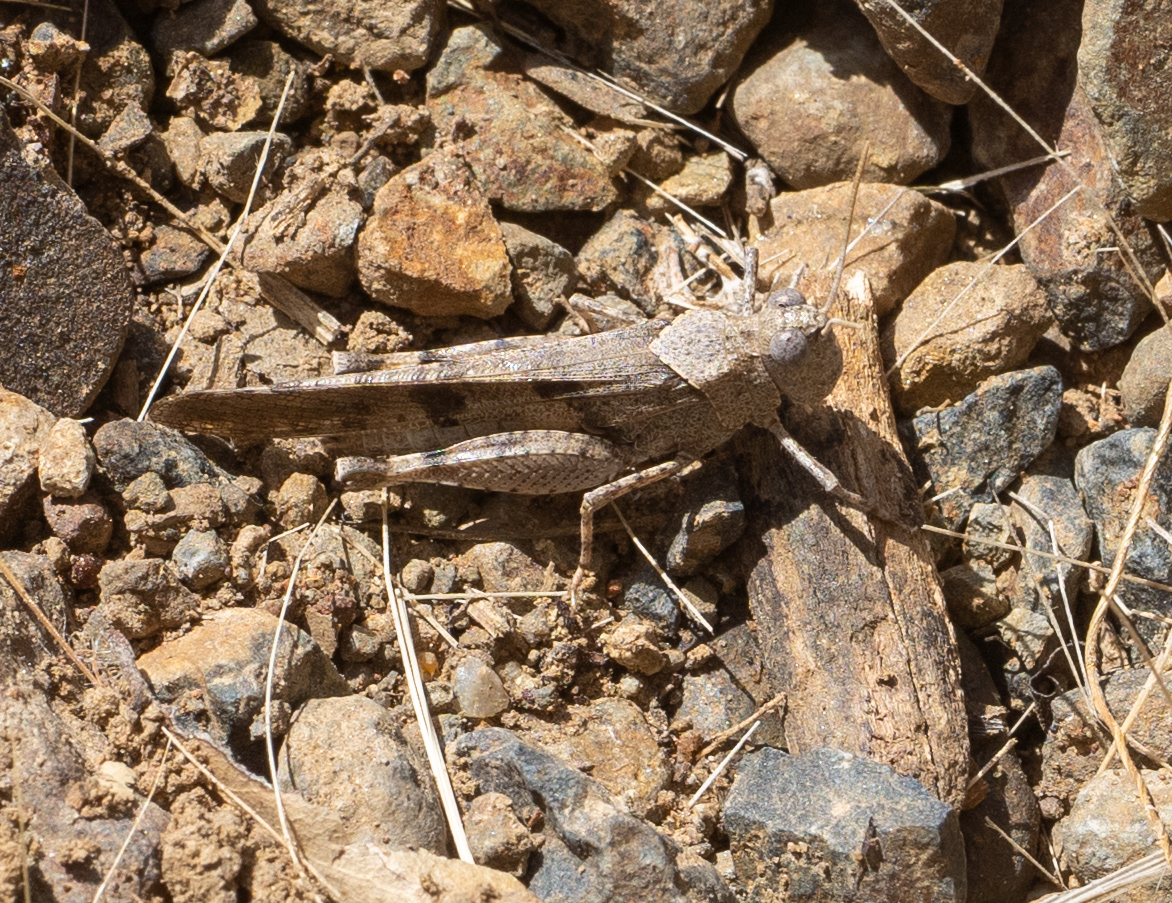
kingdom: Animalia
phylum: Arthropoda
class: Insecta
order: Orthoptera
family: Acrididae
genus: Trimerotropis
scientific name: Trimerotropis thalassica
